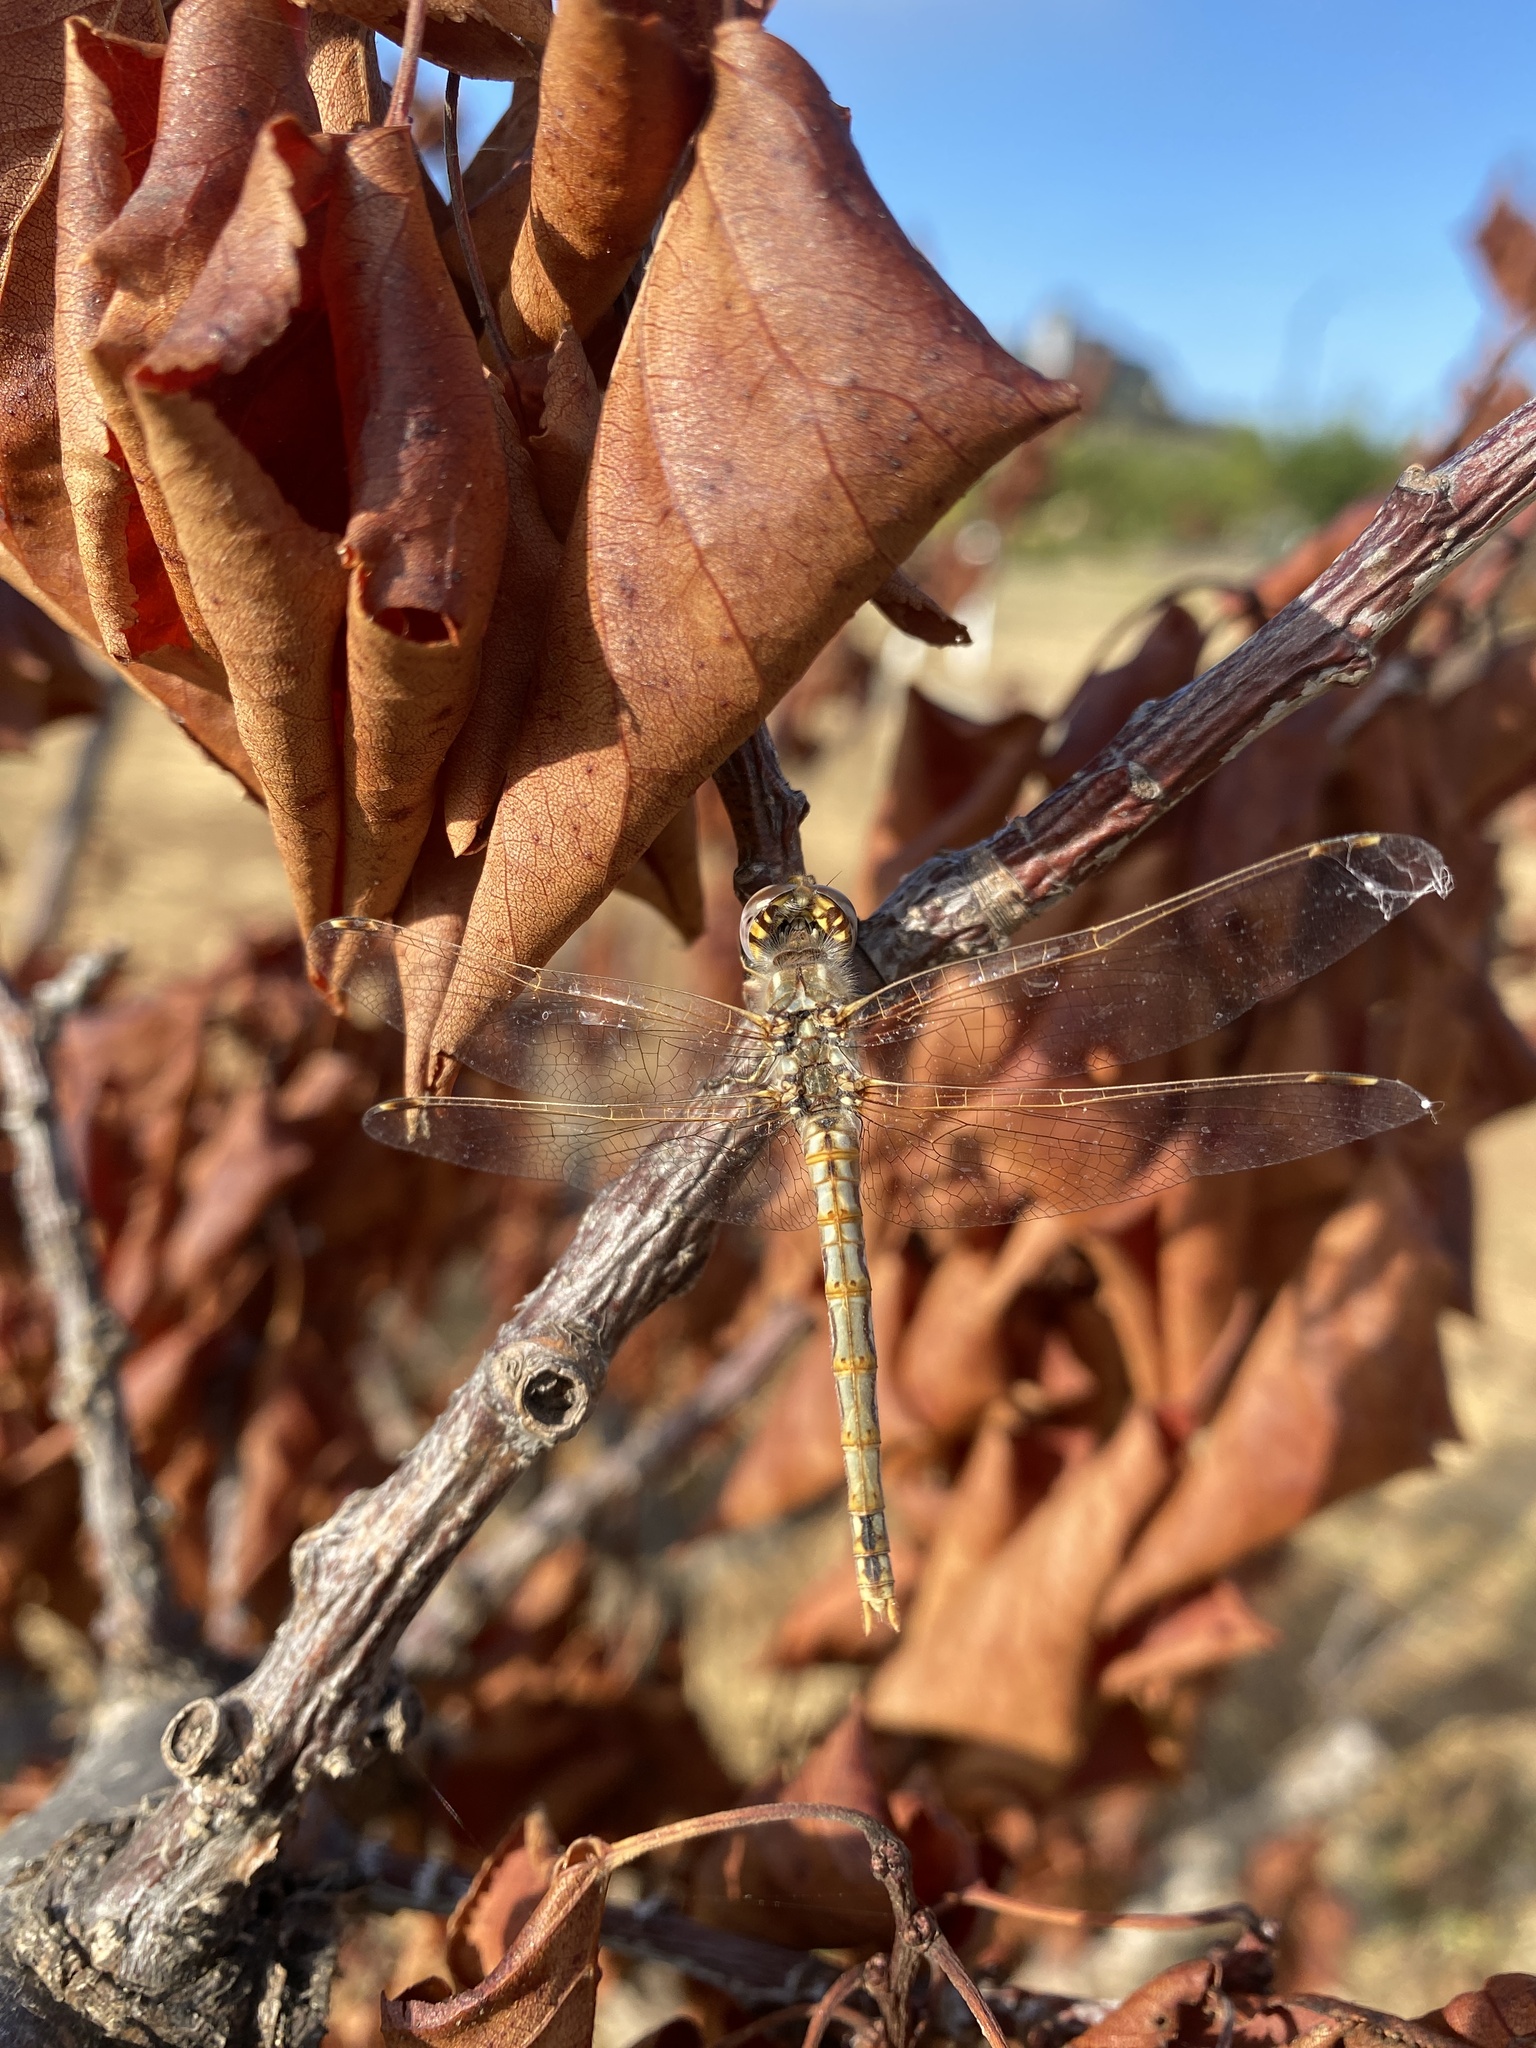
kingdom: Animalia
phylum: Arthropoda
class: Insecta
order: Odonata
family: Libellulidae
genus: Sympetrum
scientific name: Sympetrum corruptum
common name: Variegated meadowhawk
